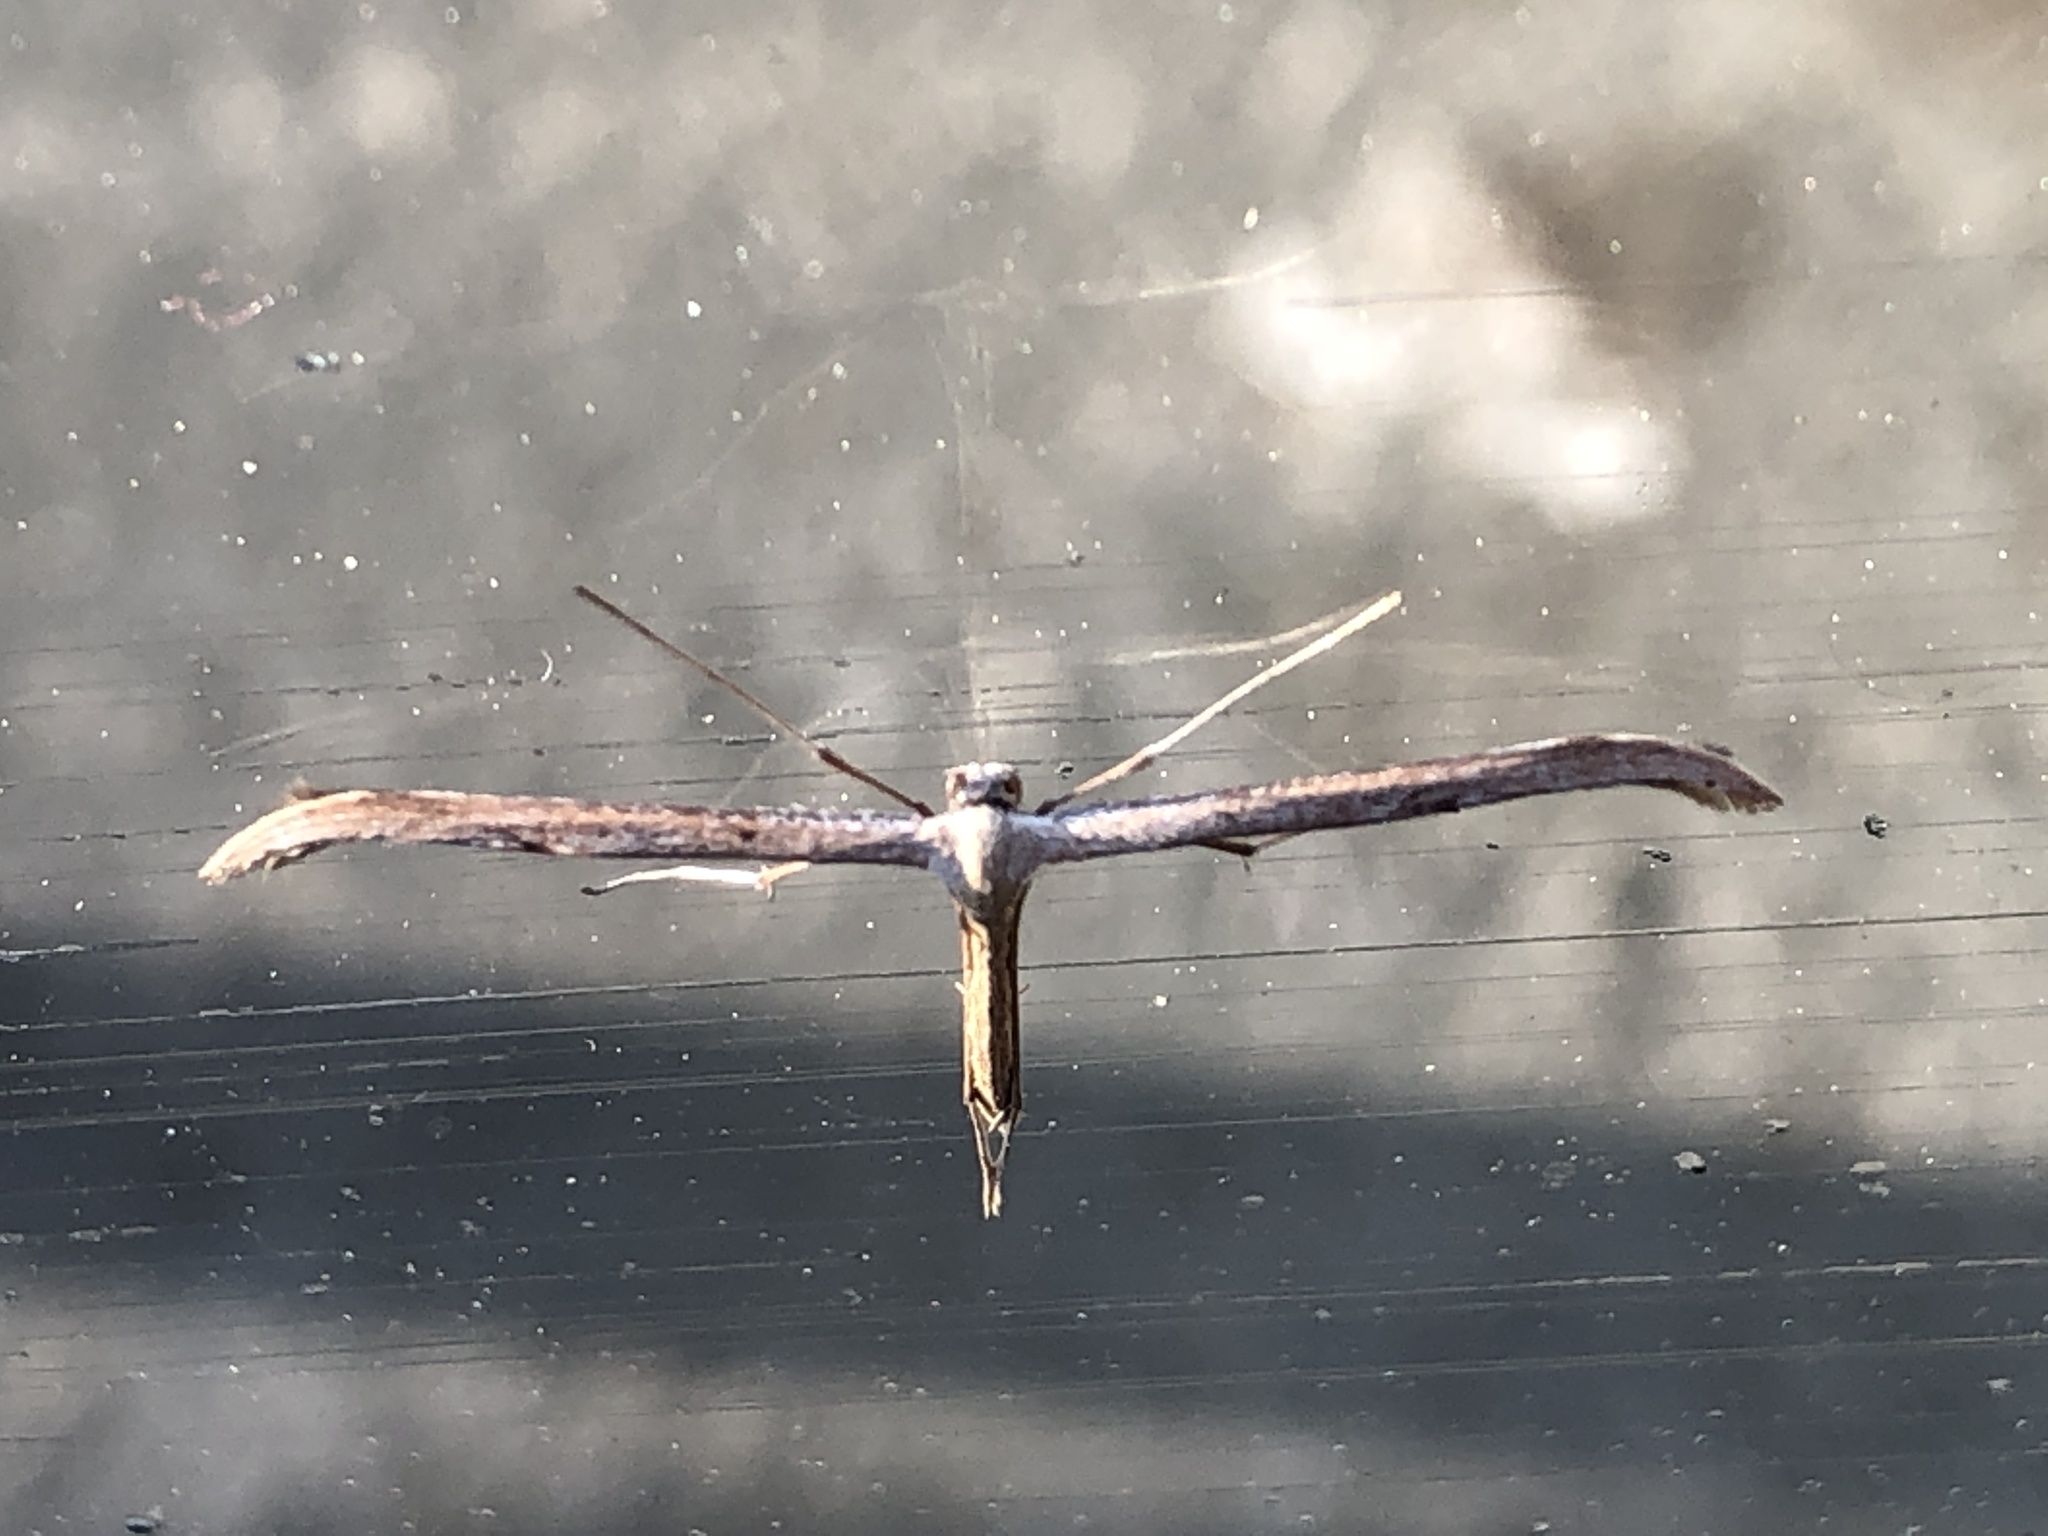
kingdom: Animalia
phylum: Arthropoda
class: Insecta
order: Lepidoptera
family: Pterophoridae
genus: Emmelina
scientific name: Emmelina monodactyla
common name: Common plume
